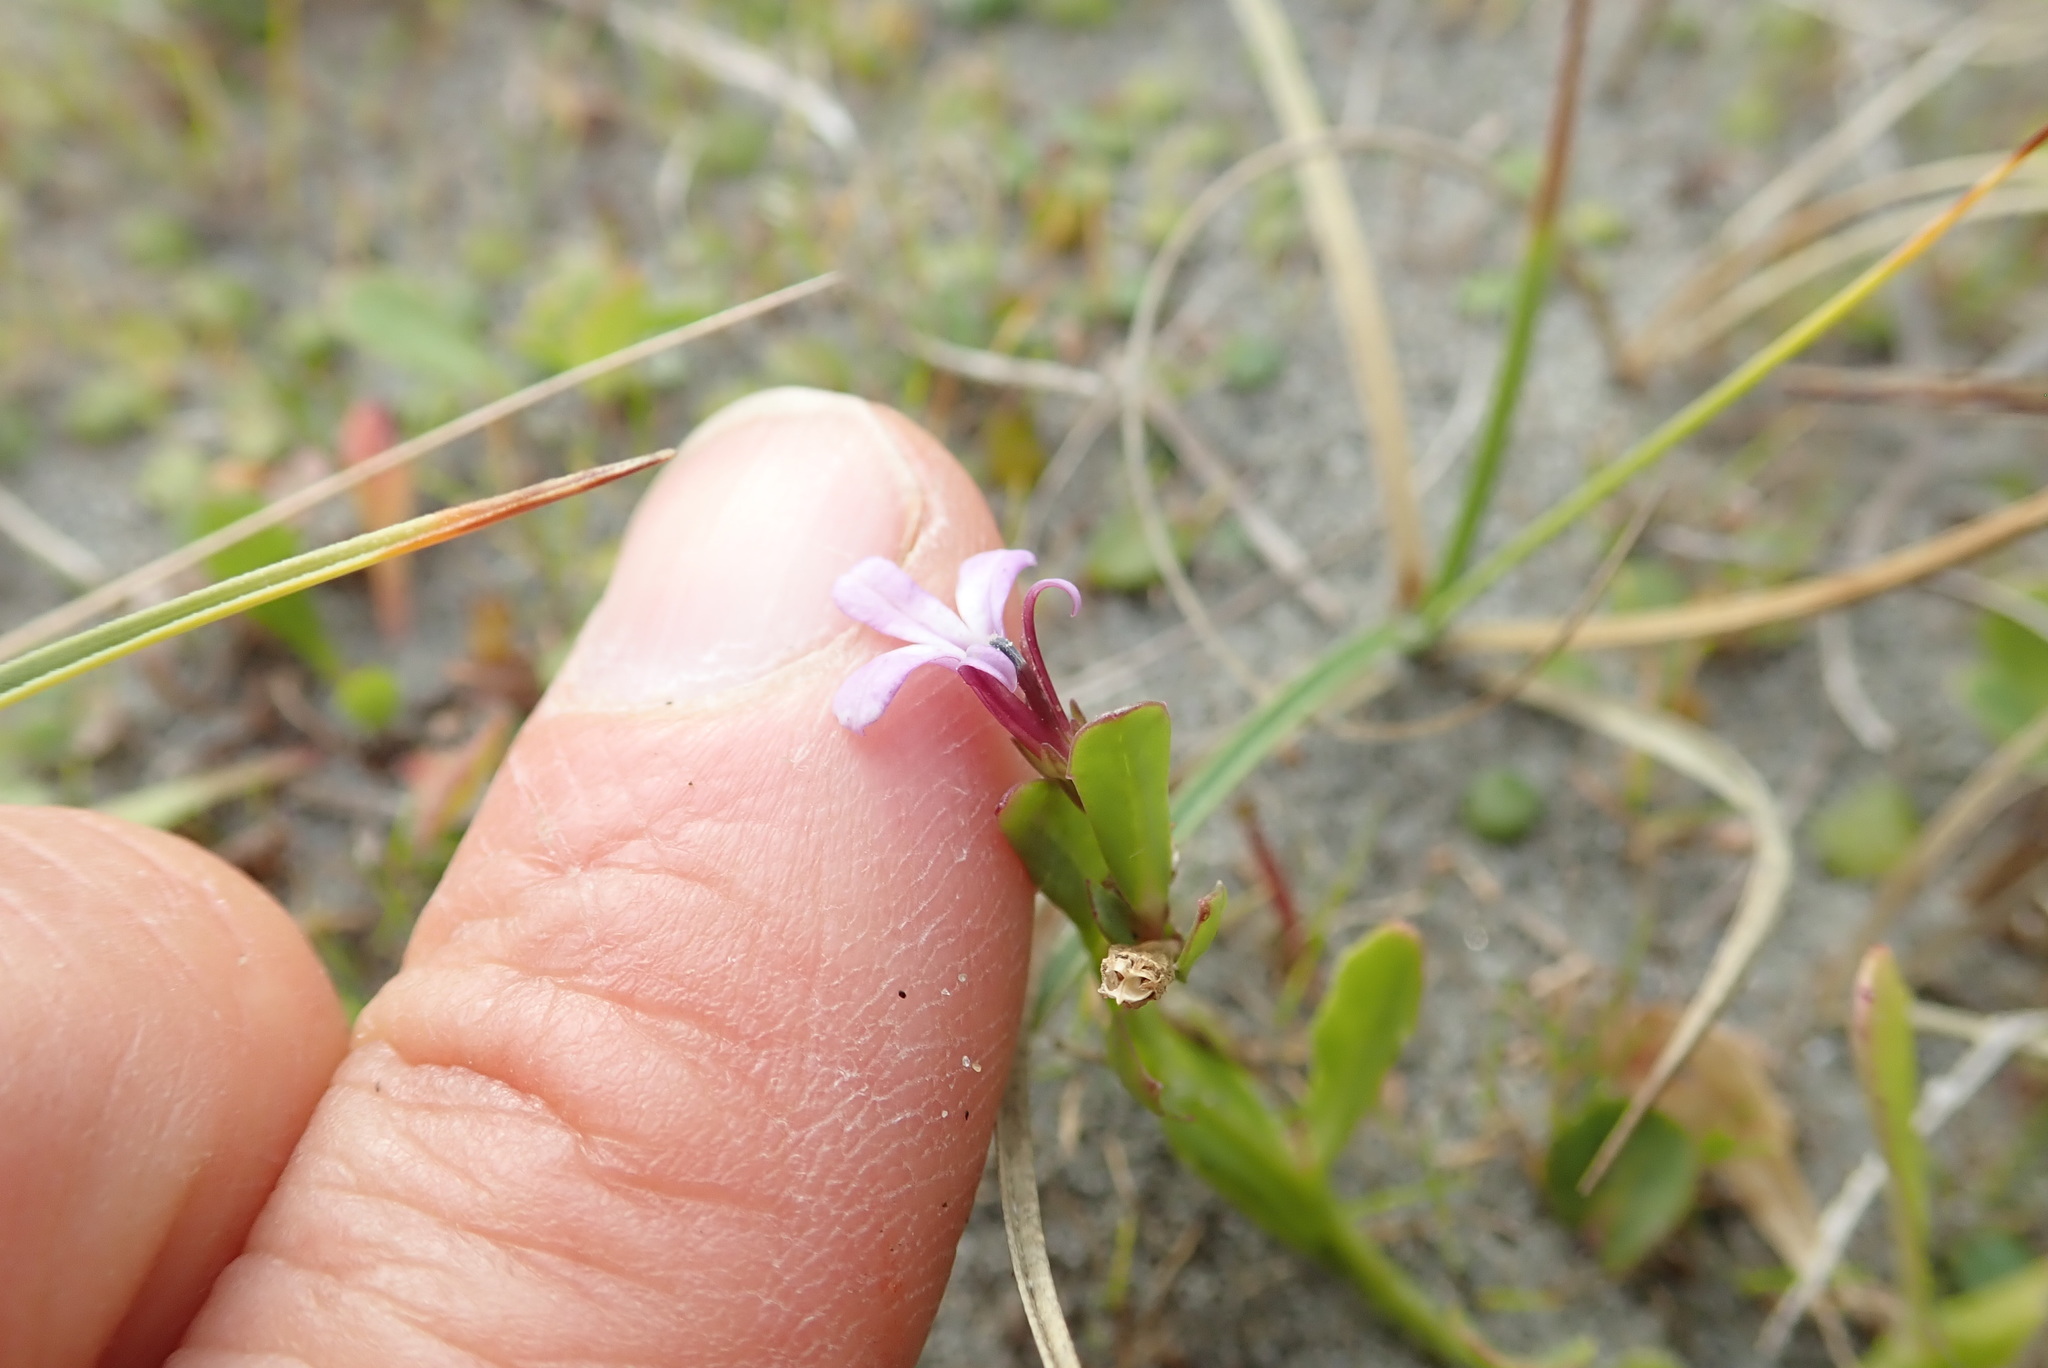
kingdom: Plantae
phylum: Tracheophyta
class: Magnoliopsida
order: Asterales
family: Campanulaceae
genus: Lobelia
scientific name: Lobelia anceps
